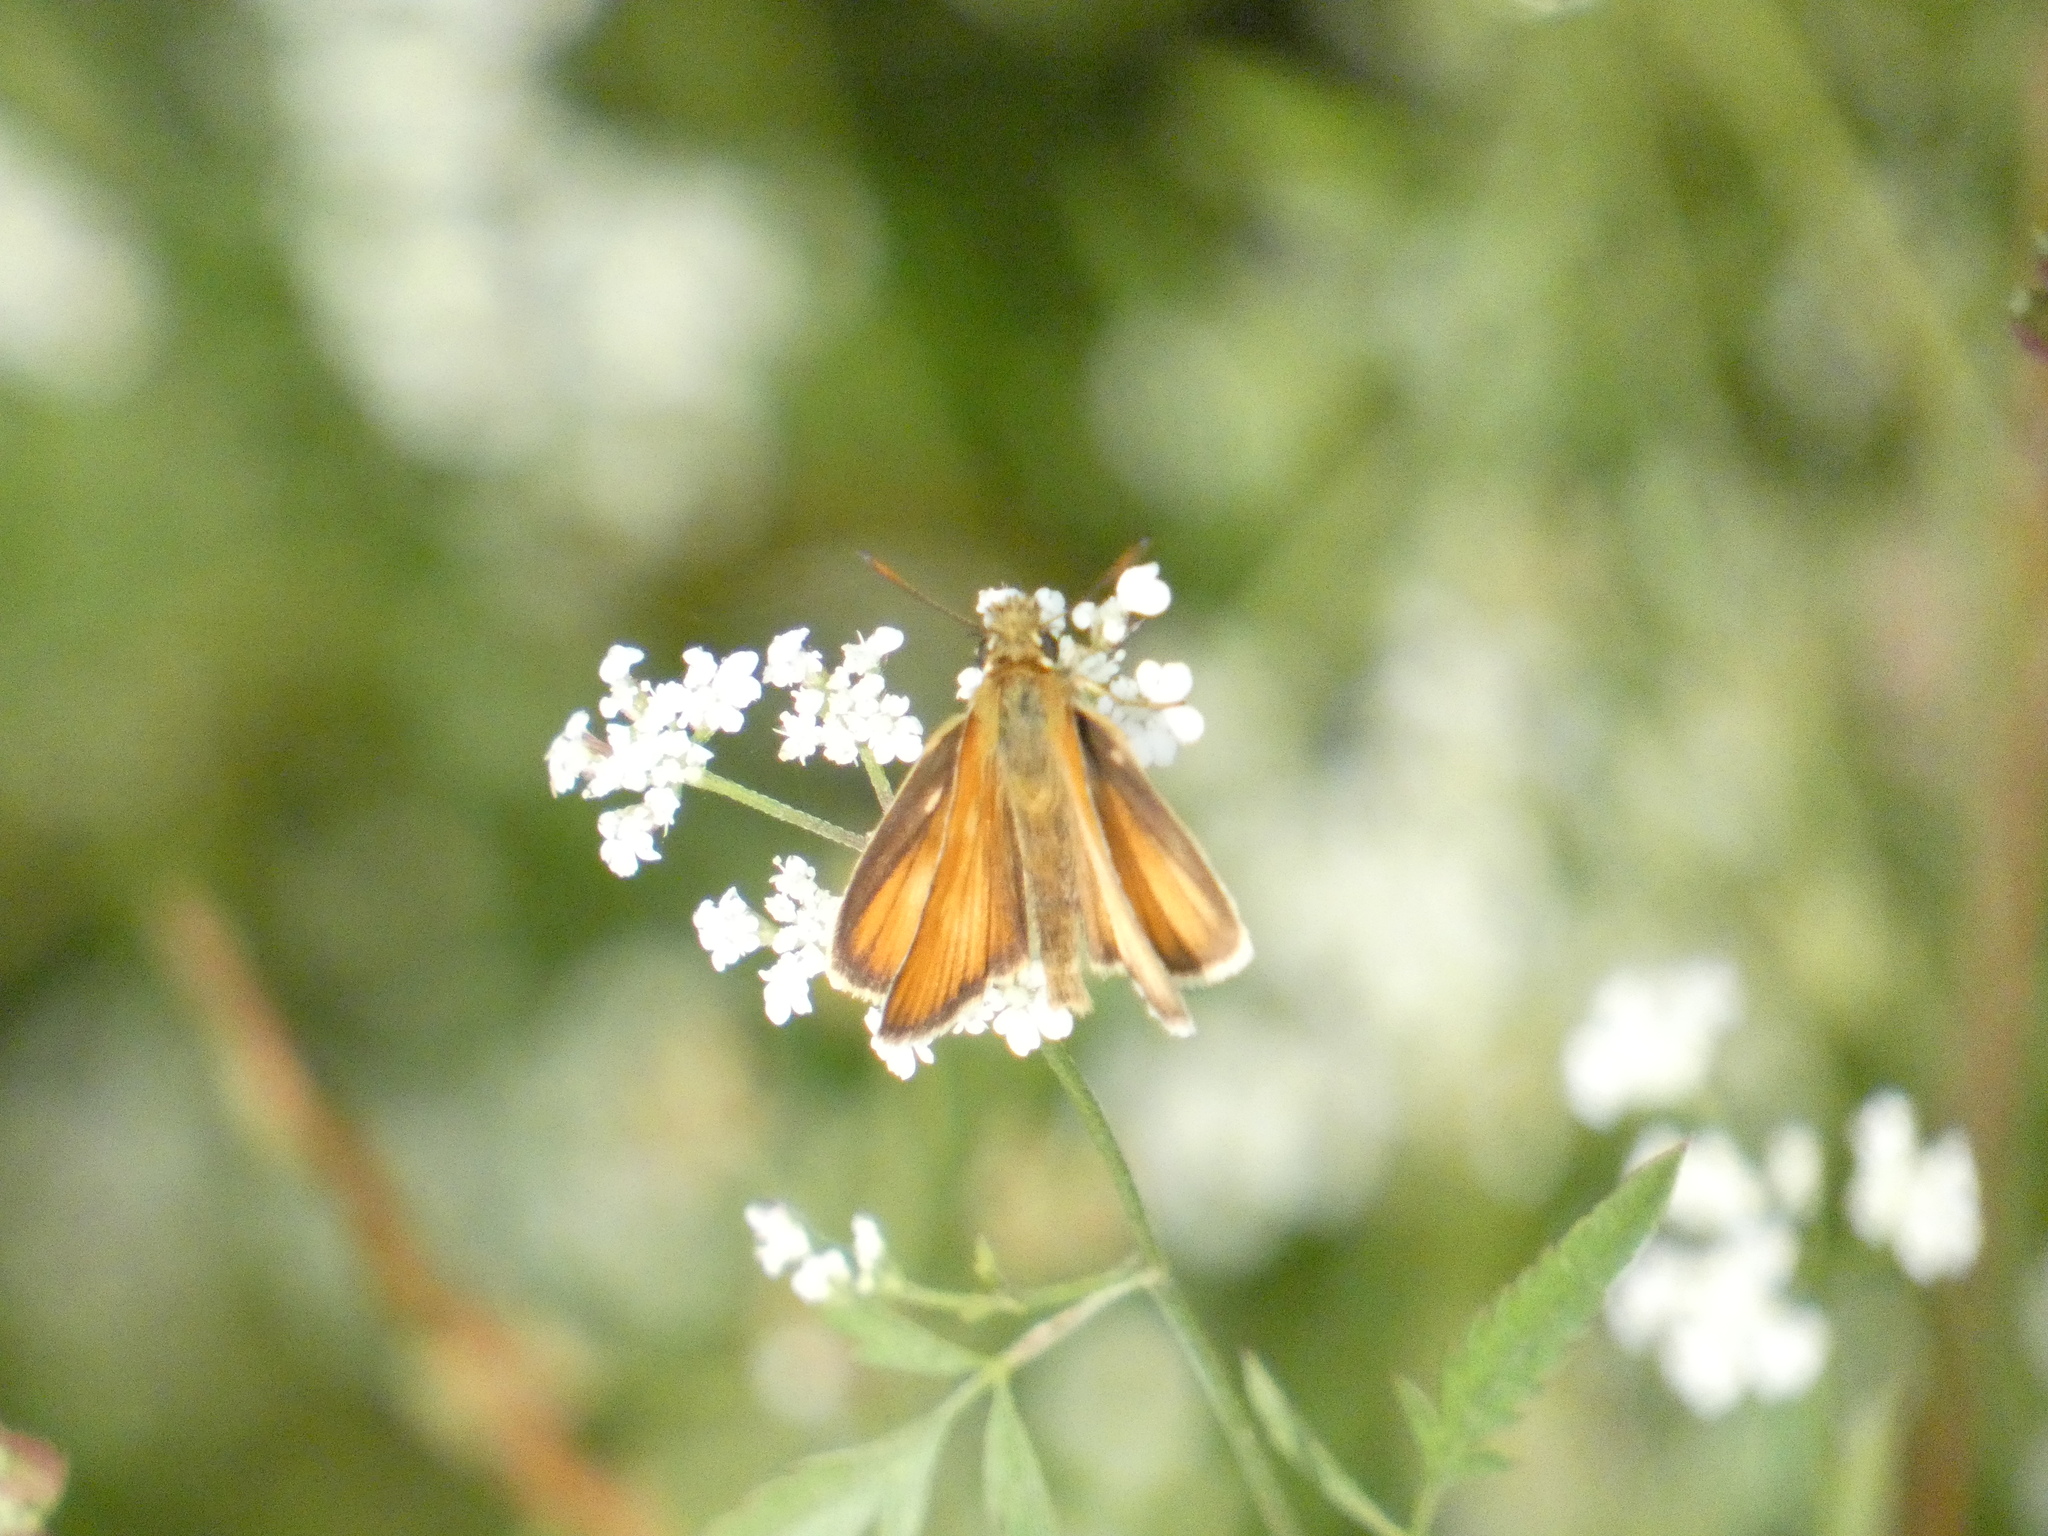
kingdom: Animalia
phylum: Arthropoda
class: Insecta
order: Lepidoptera
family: Hesperiidae
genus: Thymelicus
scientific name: Thymelicus lineola
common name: Essex skipper
